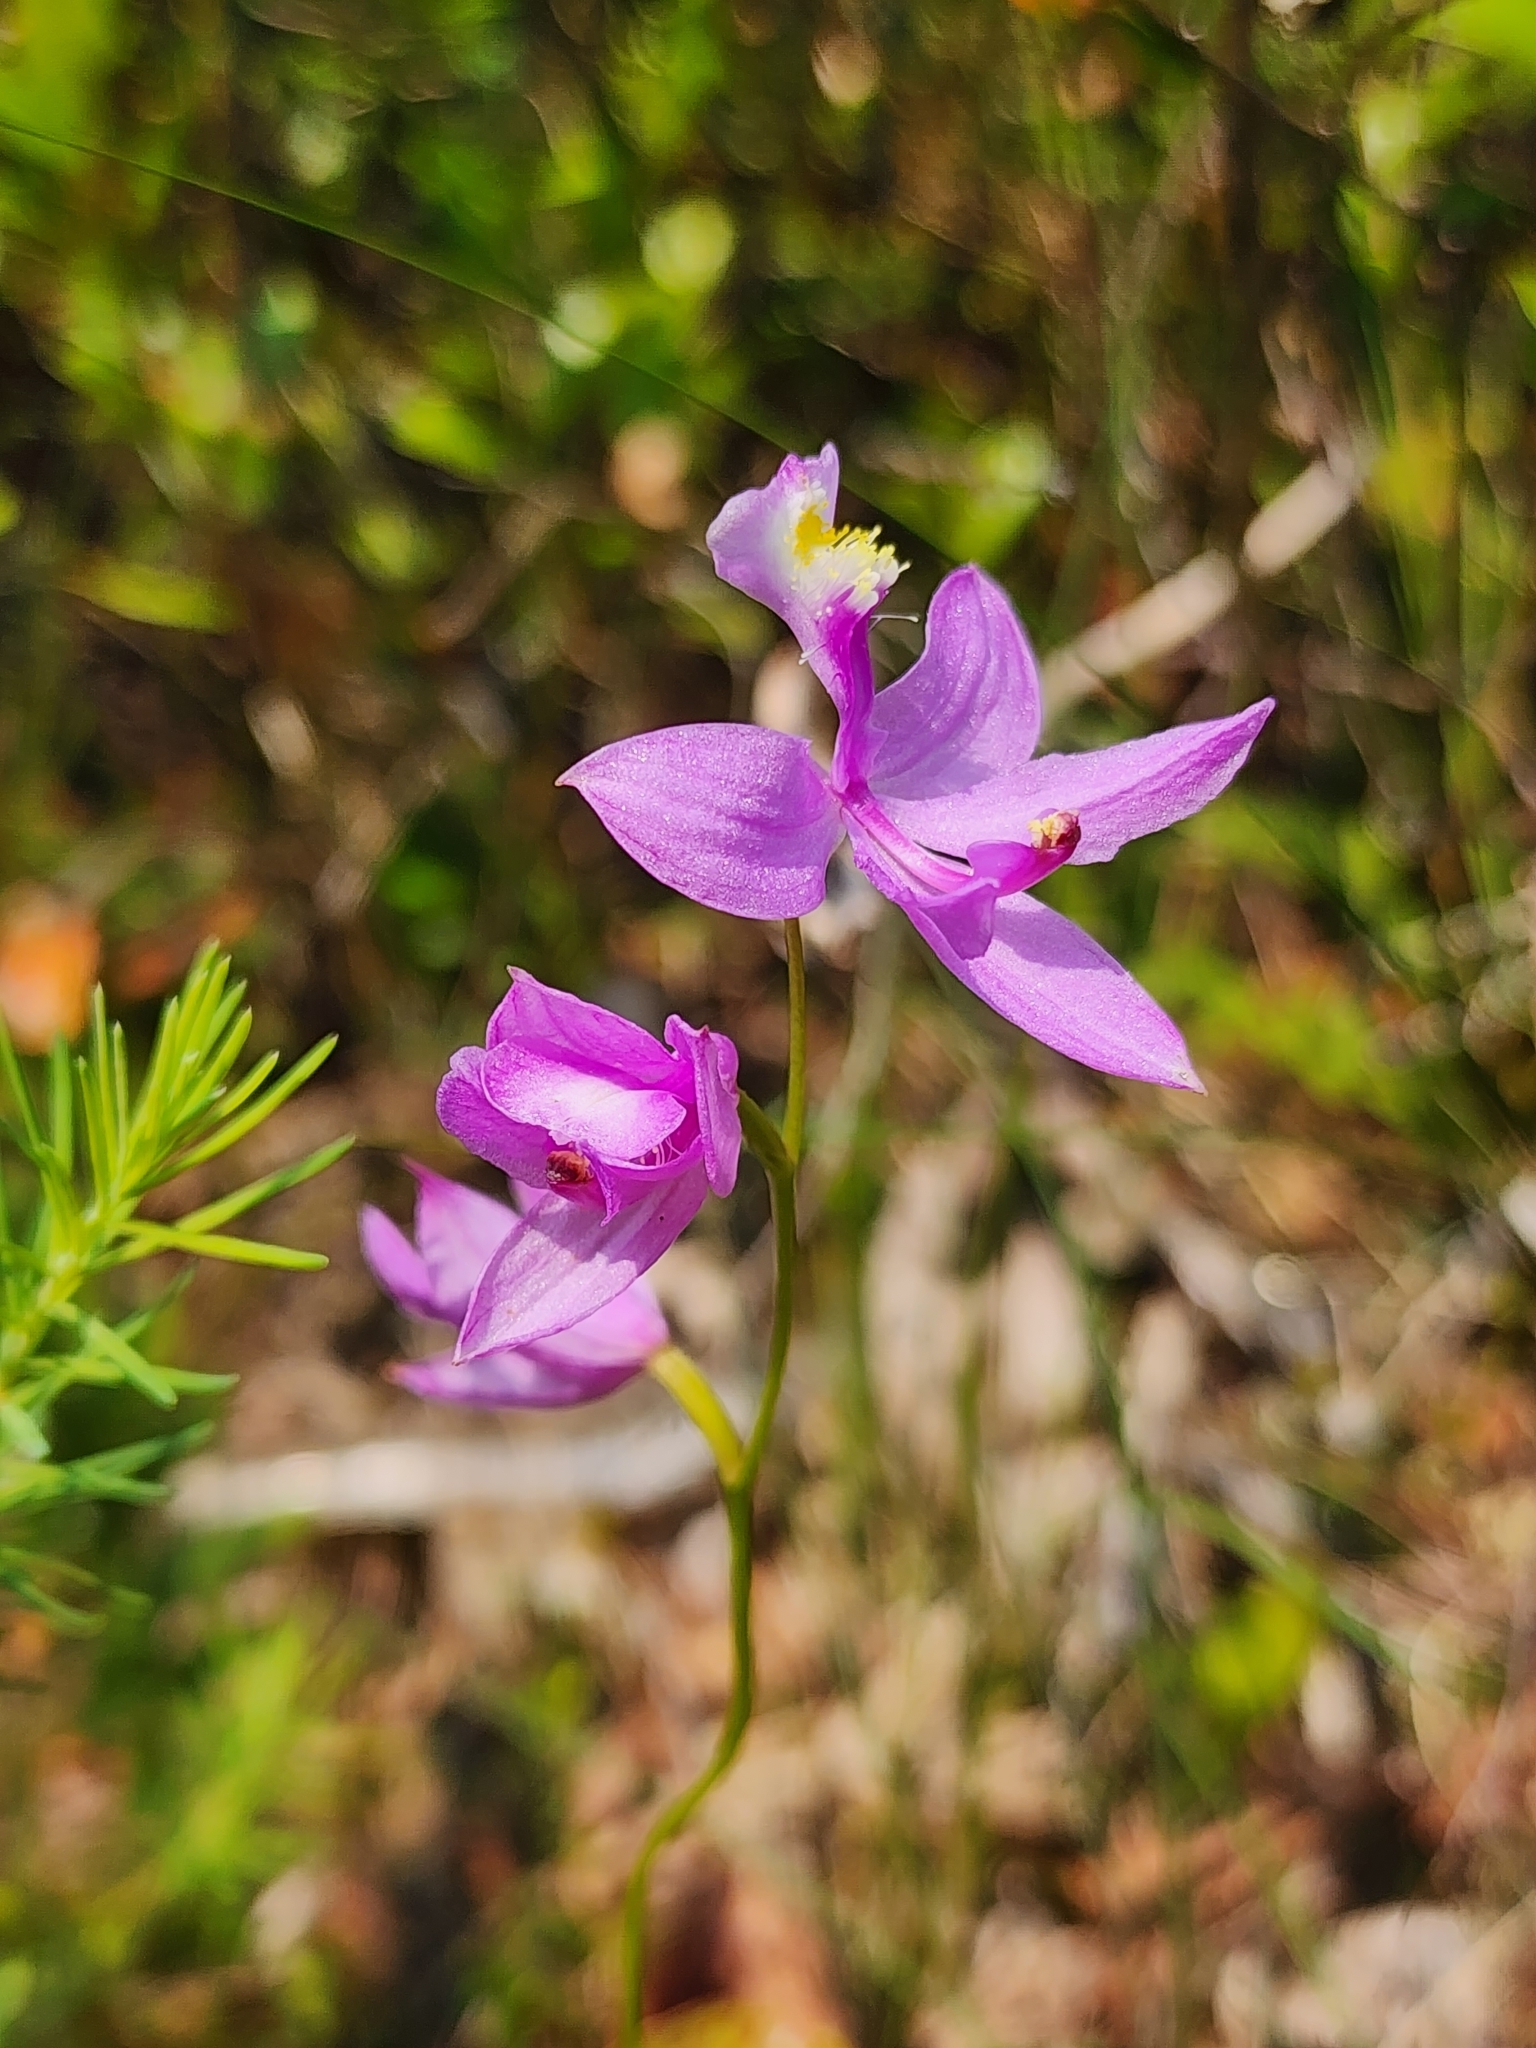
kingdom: Plantae
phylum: Tracheophyta
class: Liliopsida
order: Asparagales
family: Orchidaceae
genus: Calopogon
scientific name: Calopogon tuberosus
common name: Grass-pink
